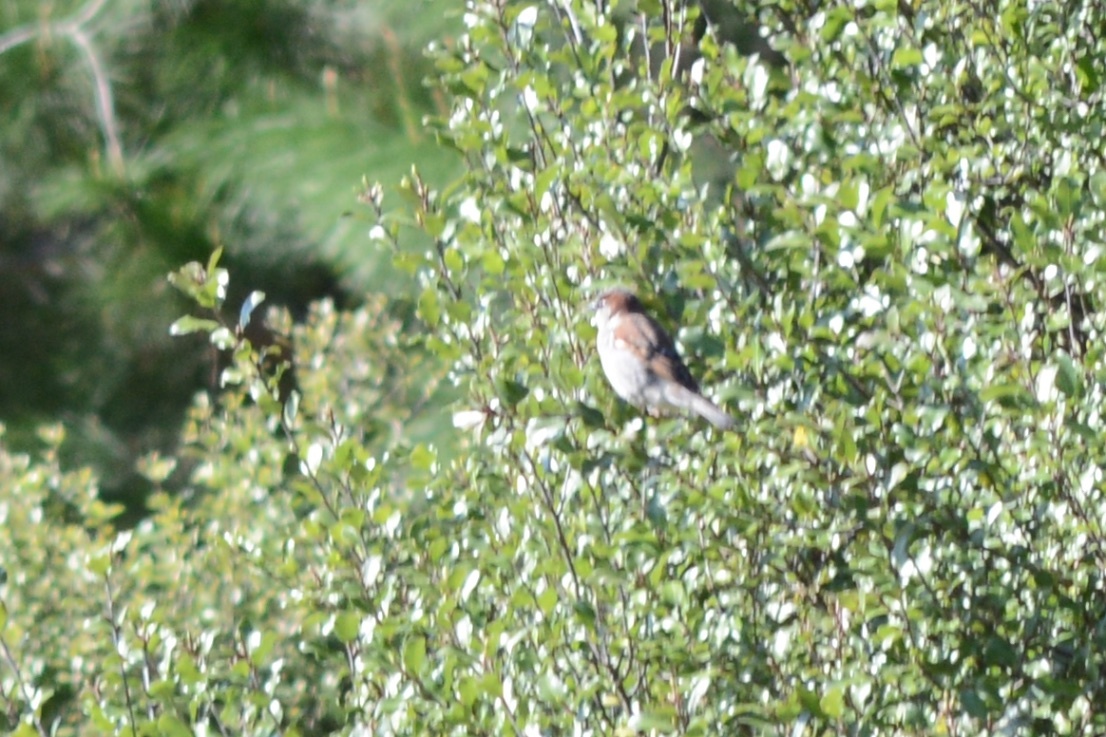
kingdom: Animalia
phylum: Chordata
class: Aves
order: Passeriformes
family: Passeridae
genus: Passer
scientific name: Passer domesticus
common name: House sparrow
